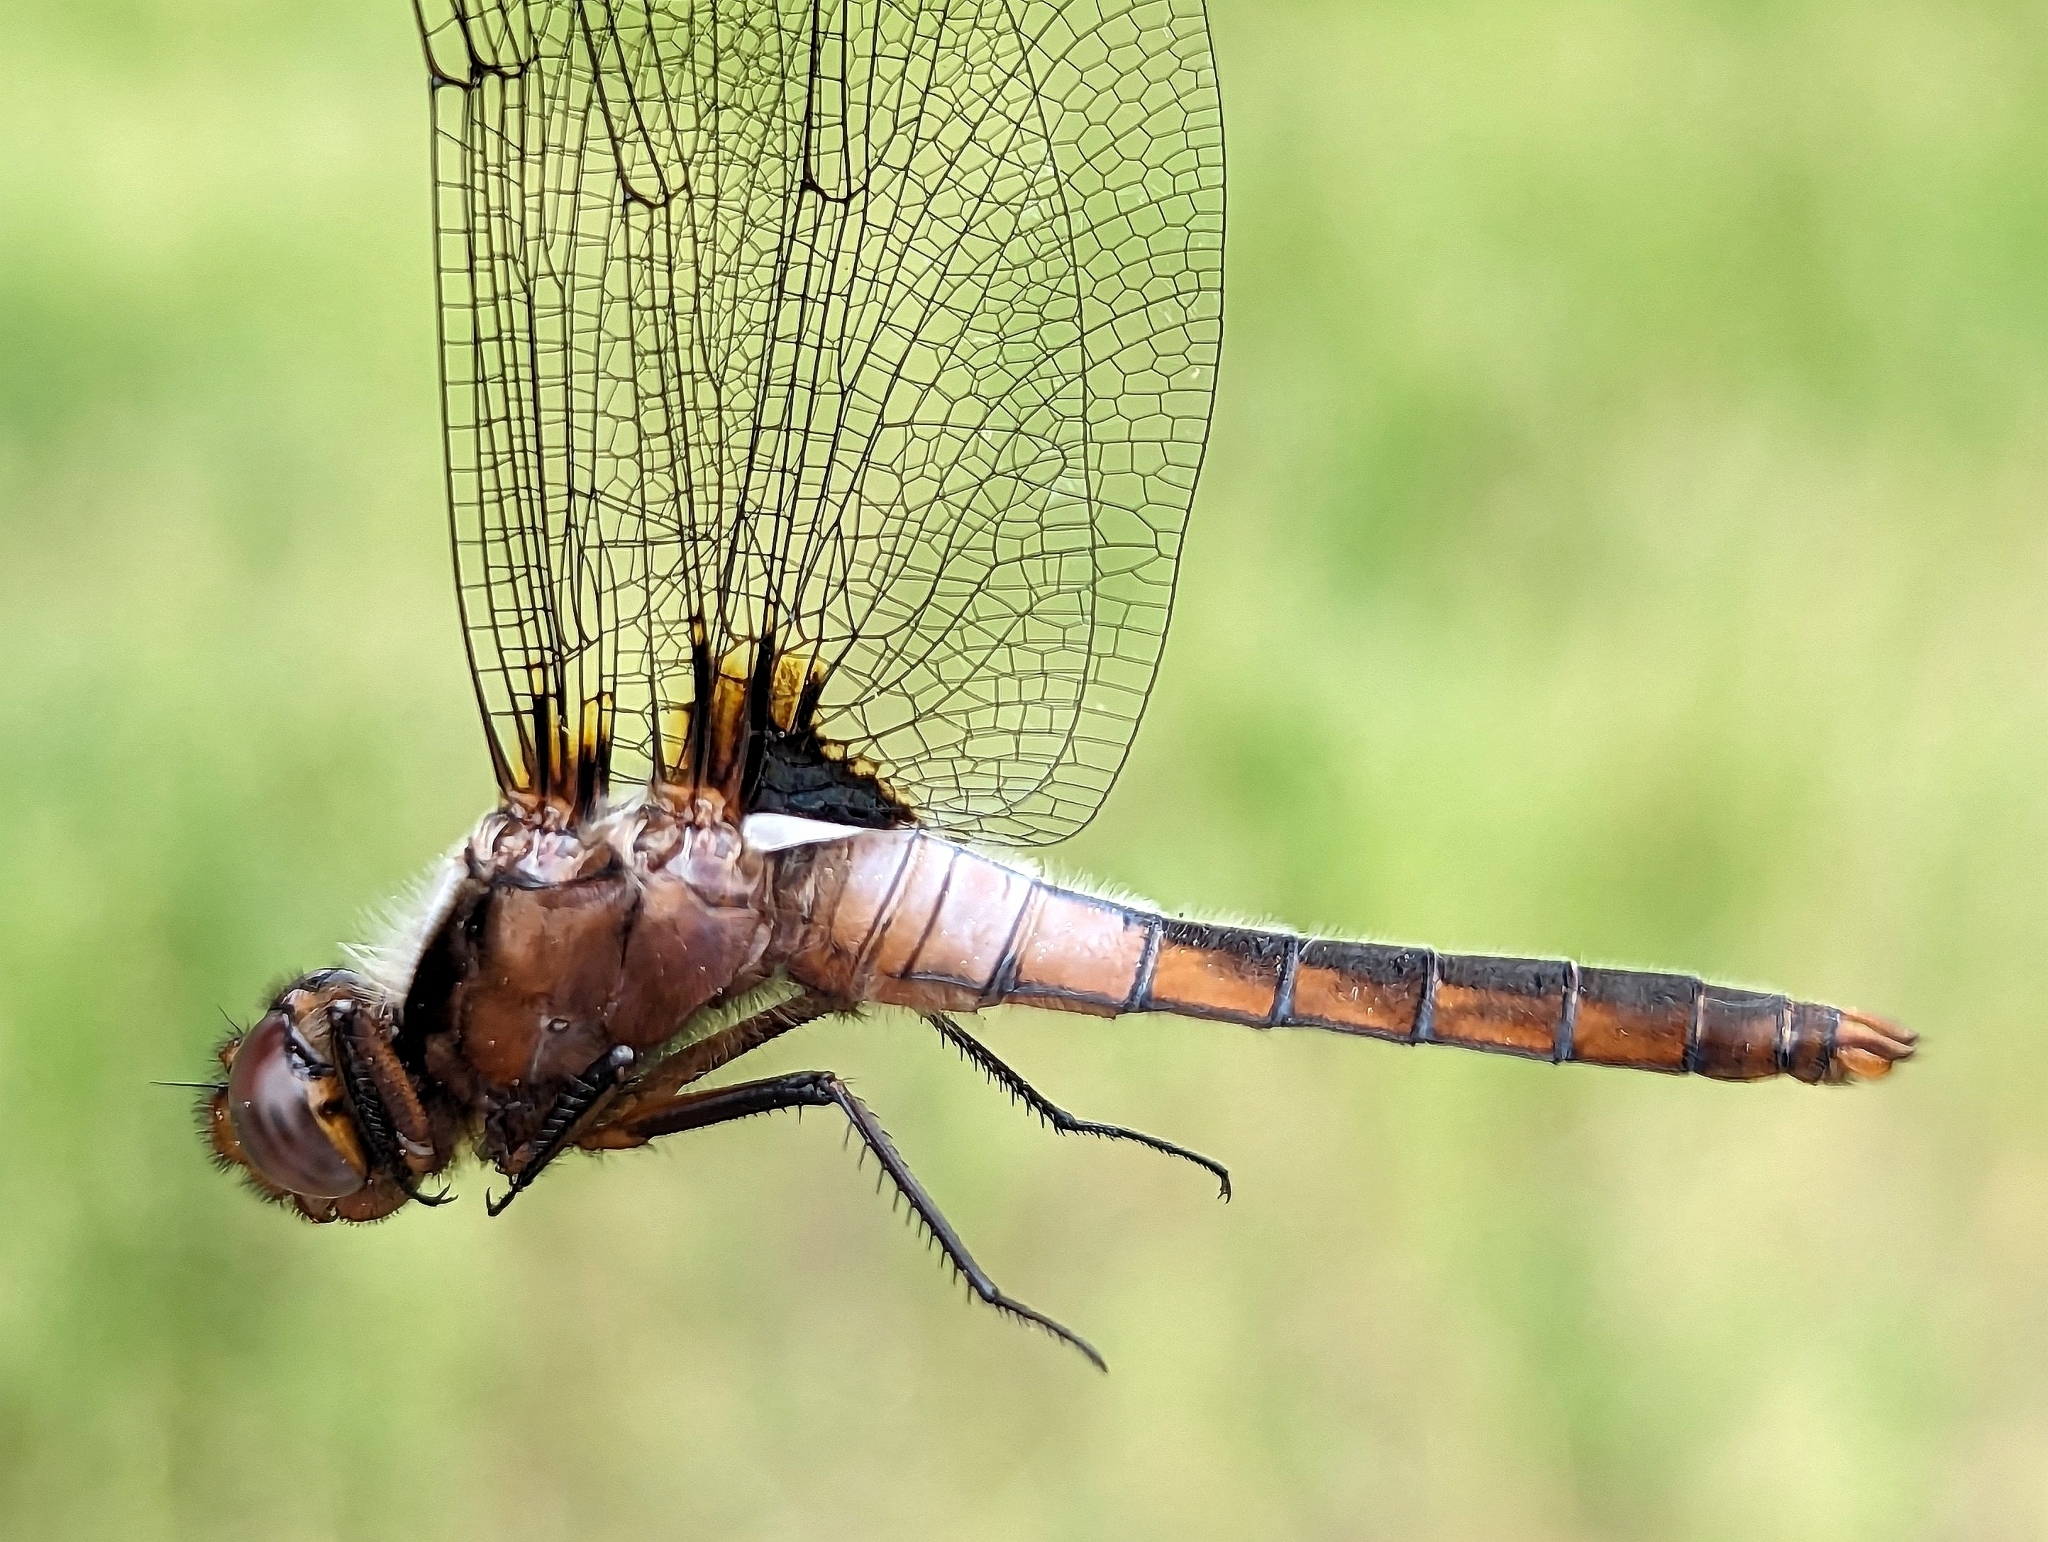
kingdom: Animalia
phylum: Arthropoda
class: Insecta
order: Odonata
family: Libellulidae
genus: Ladona
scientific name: Ladona julia
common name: Chalk-fronted corporal
